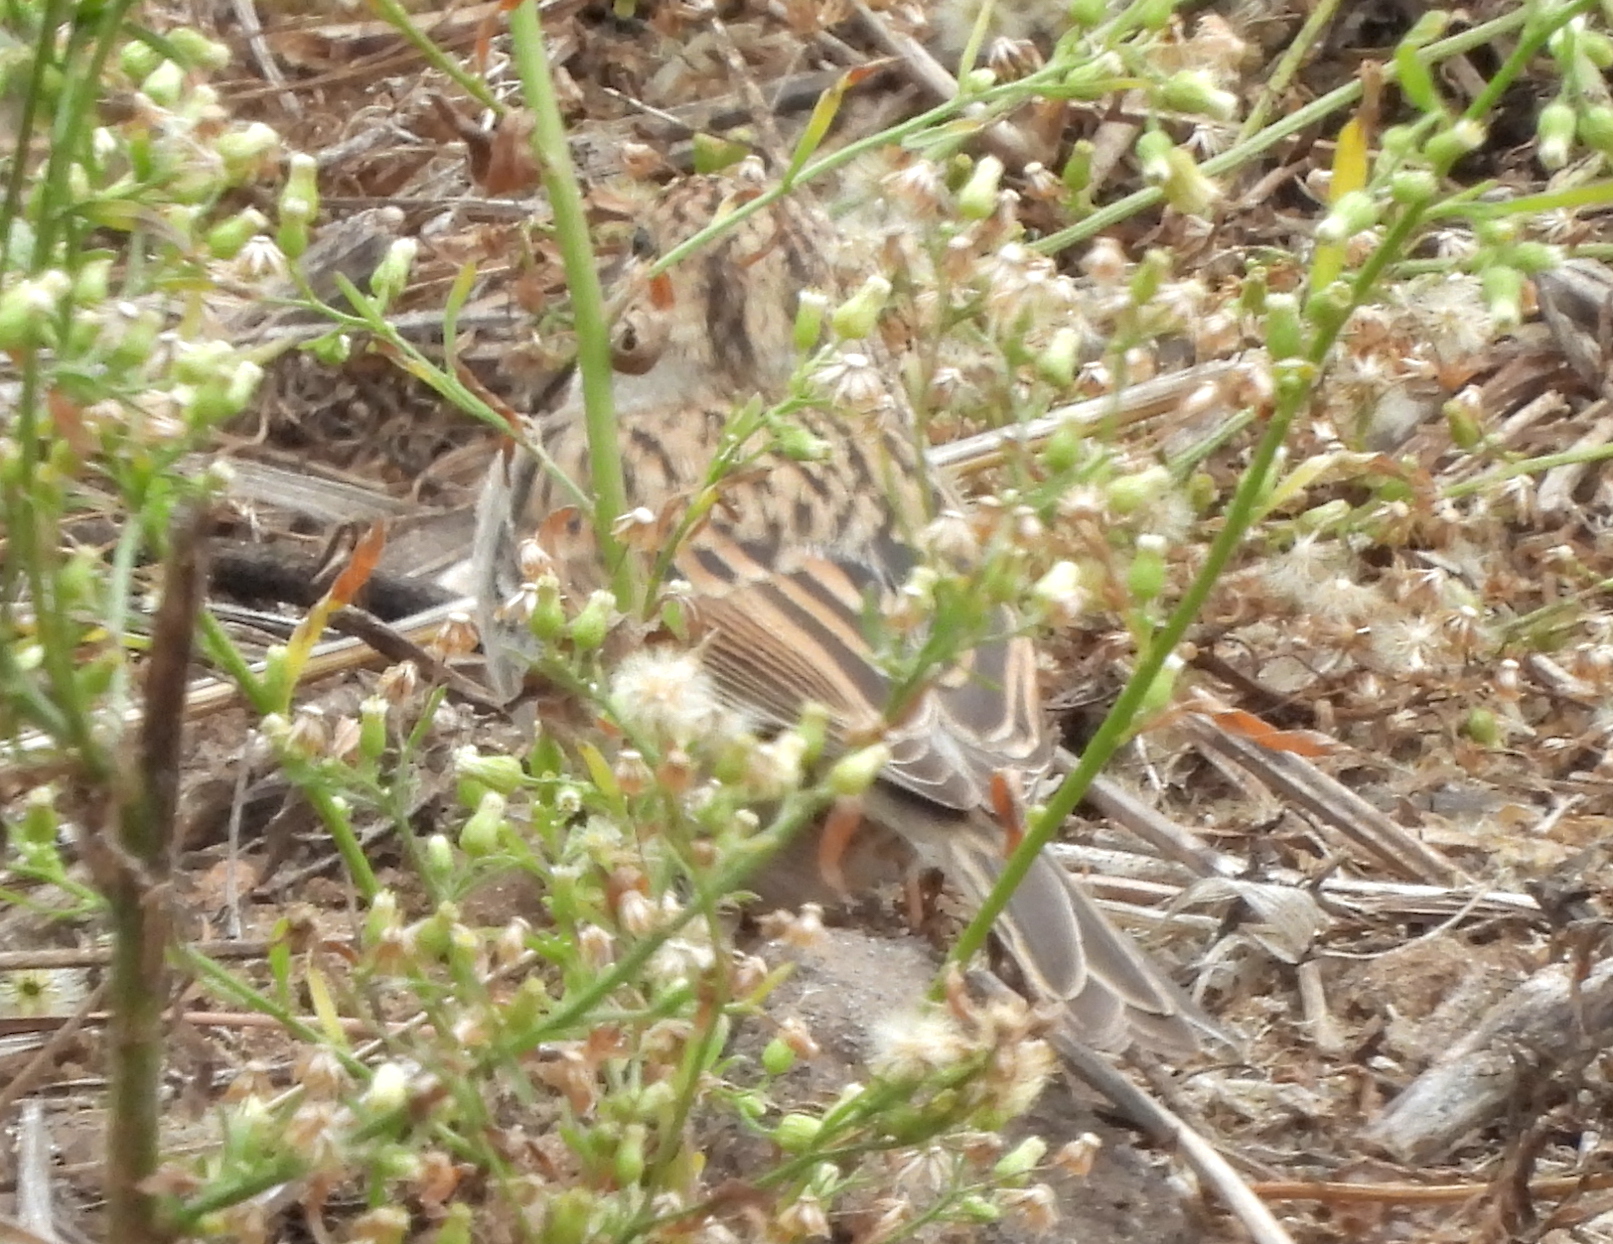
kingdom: Animalia
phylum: Chordata
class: Aves
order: Passeriformes
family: Passerellidae
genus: Spizella
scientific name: Spizella passerina
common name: Chipping sparrow
